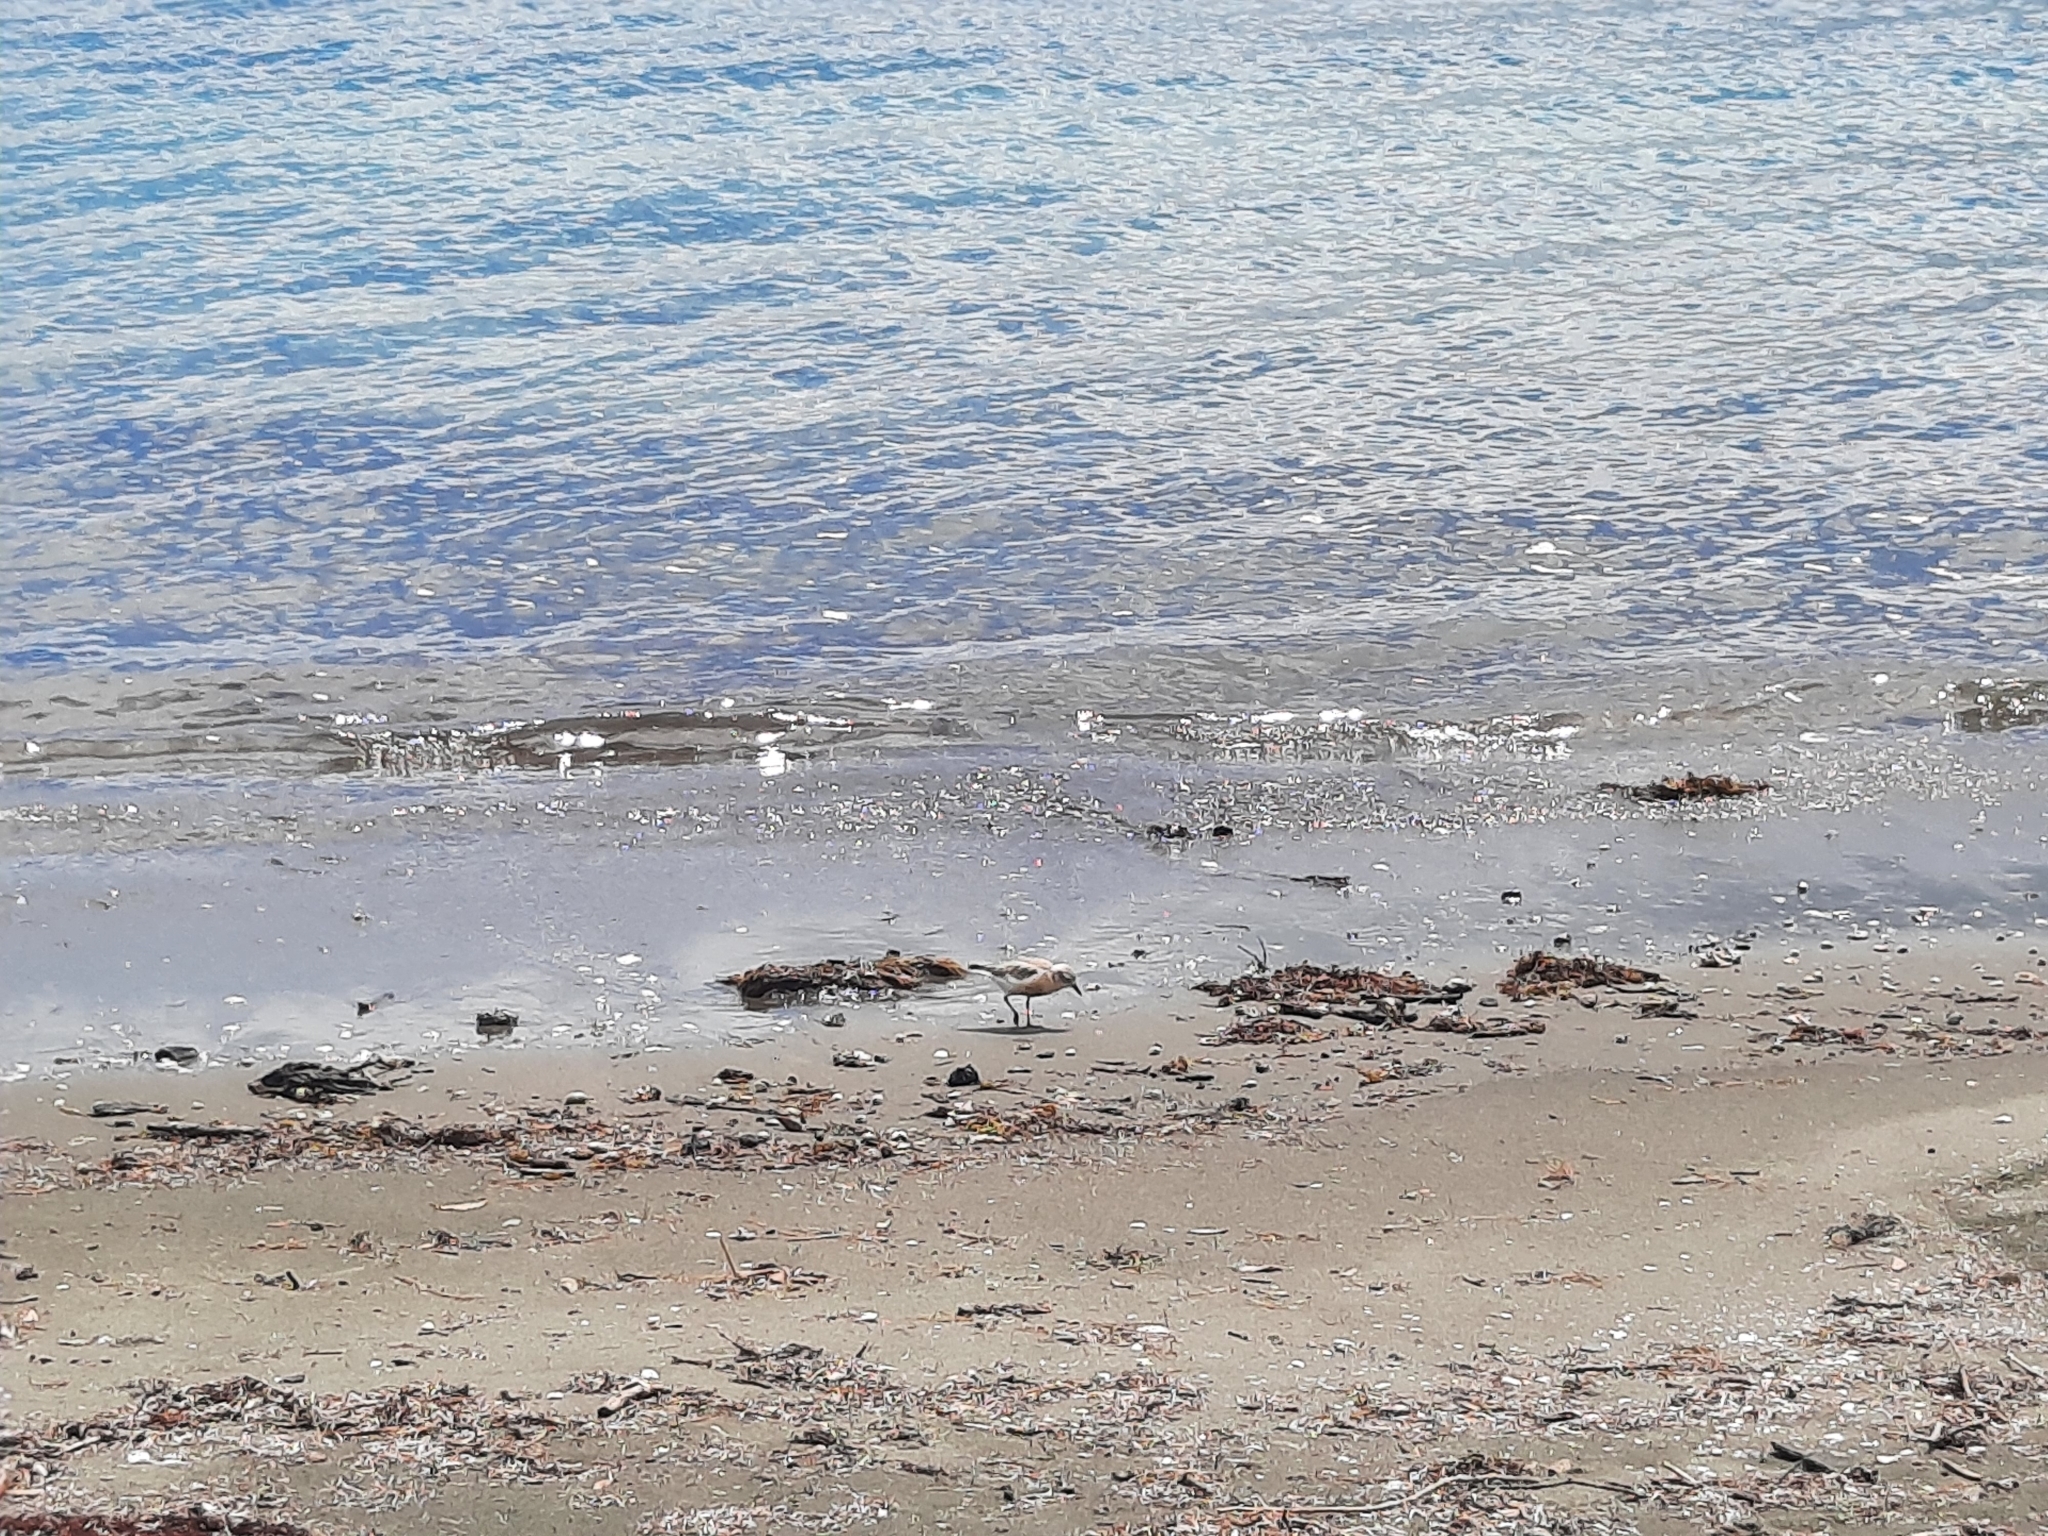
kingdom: Animalia
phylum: Chordata
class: Aves
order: Charadriiformes
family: Charadriidae
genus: Anarhynchus
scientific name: Anarhynchus
